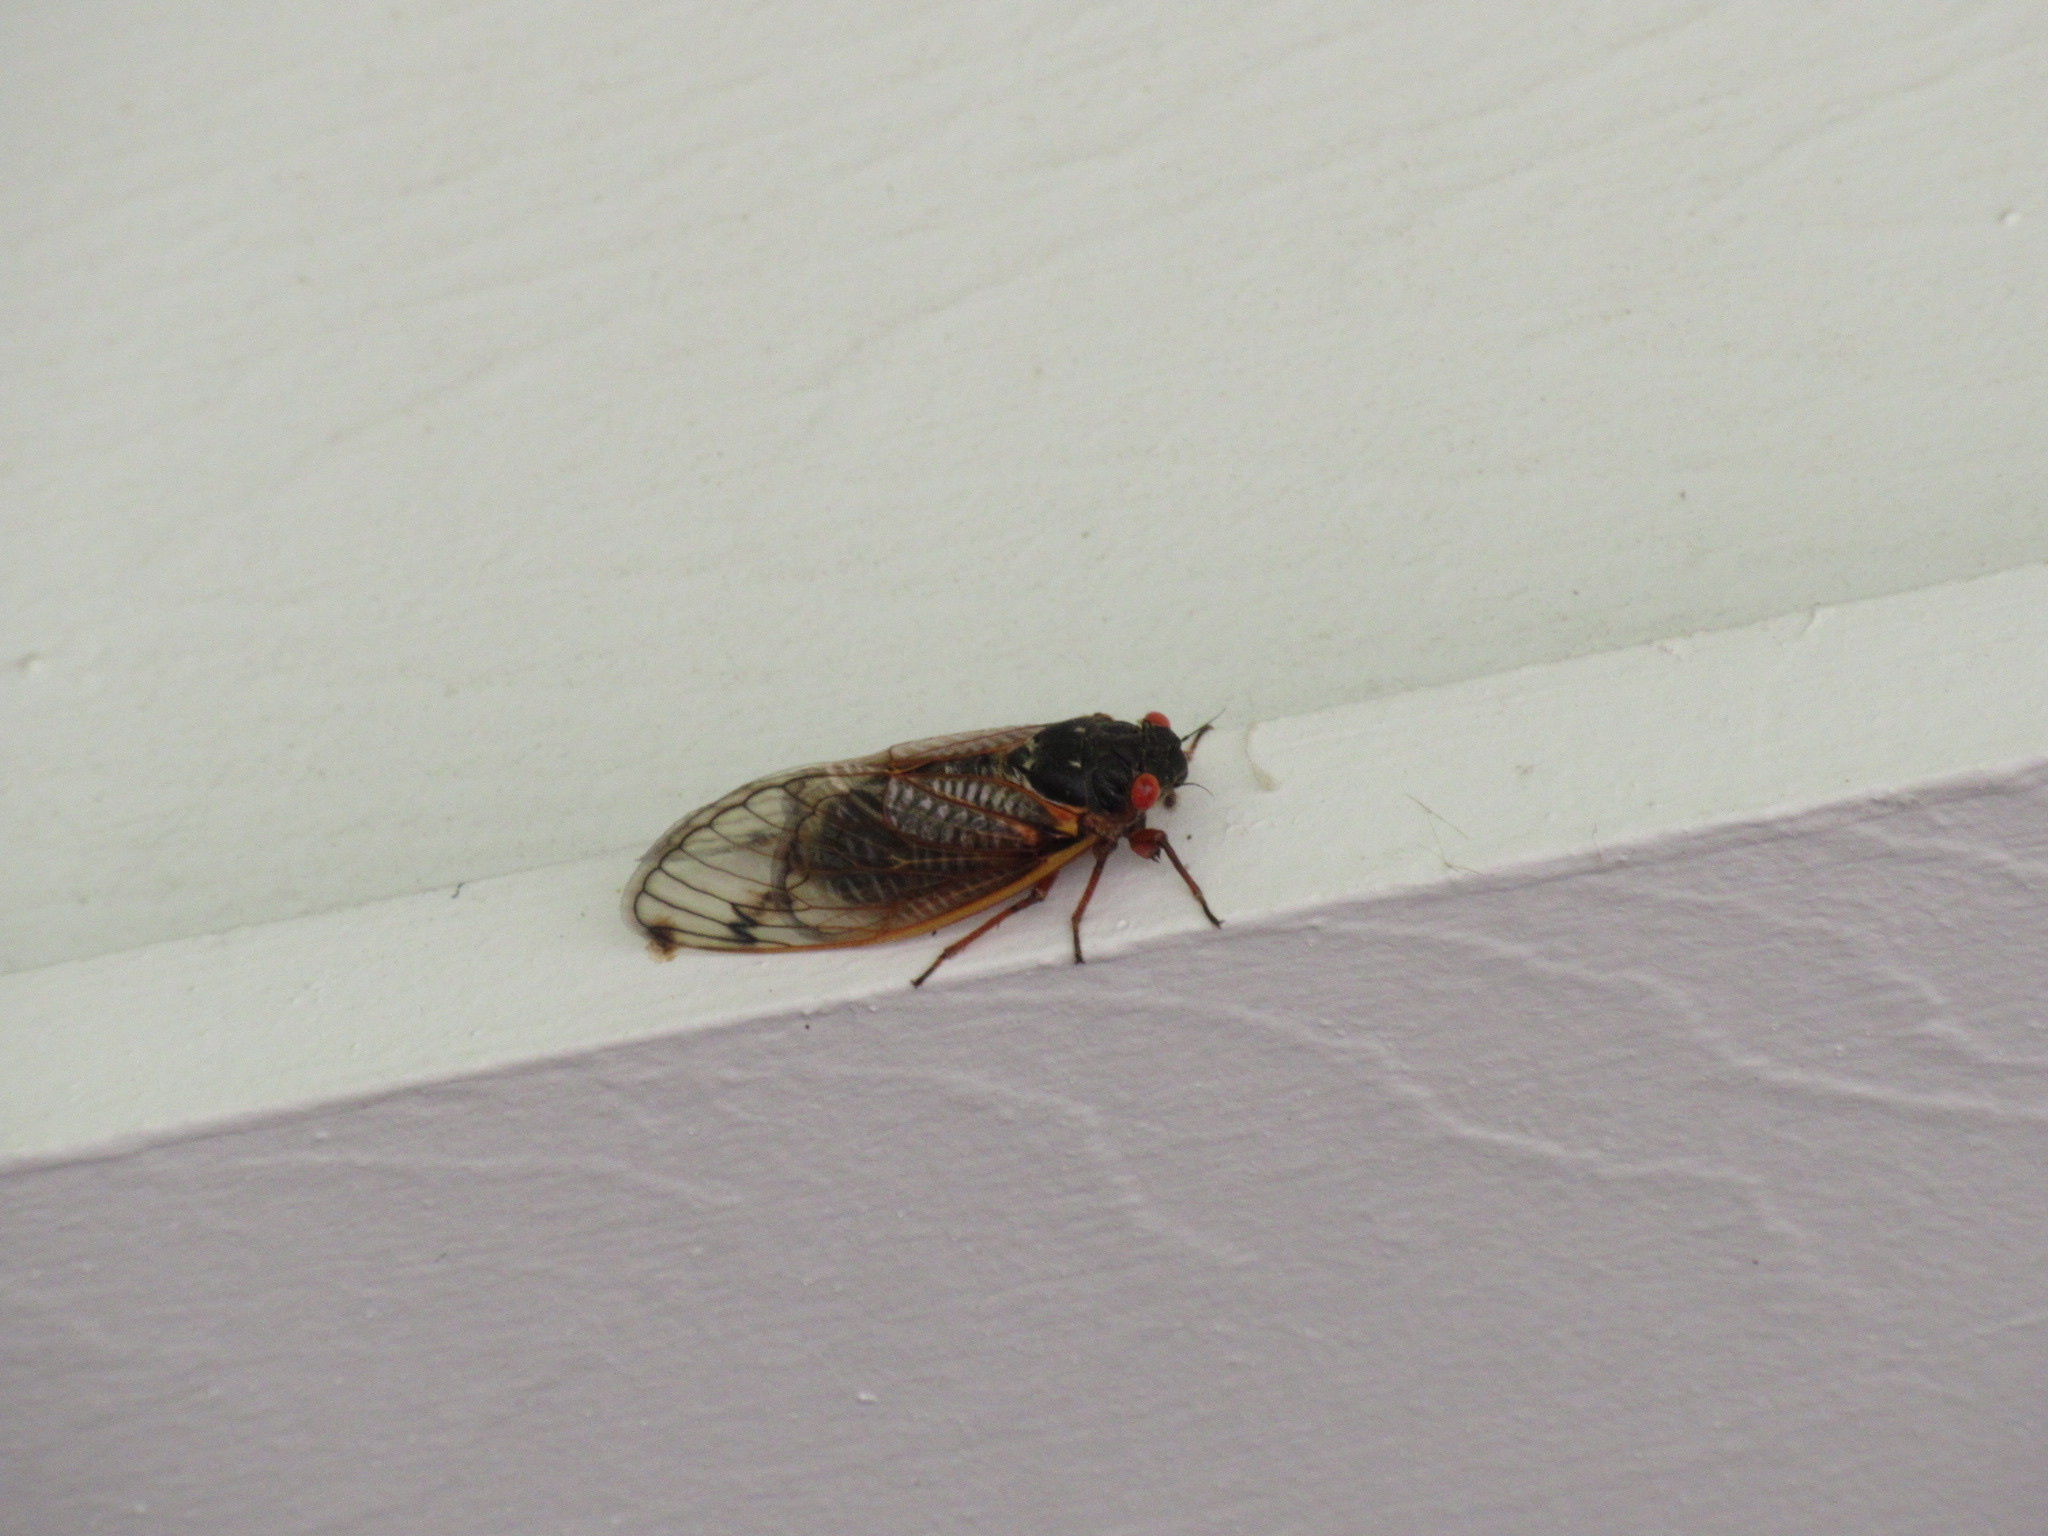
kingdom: Animalia
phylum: Arthropoda
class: Insecta
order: Hemiptera
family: Cicadidae
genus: Magicicada
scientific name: Magicicada septendecim
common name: Periodical cicada
